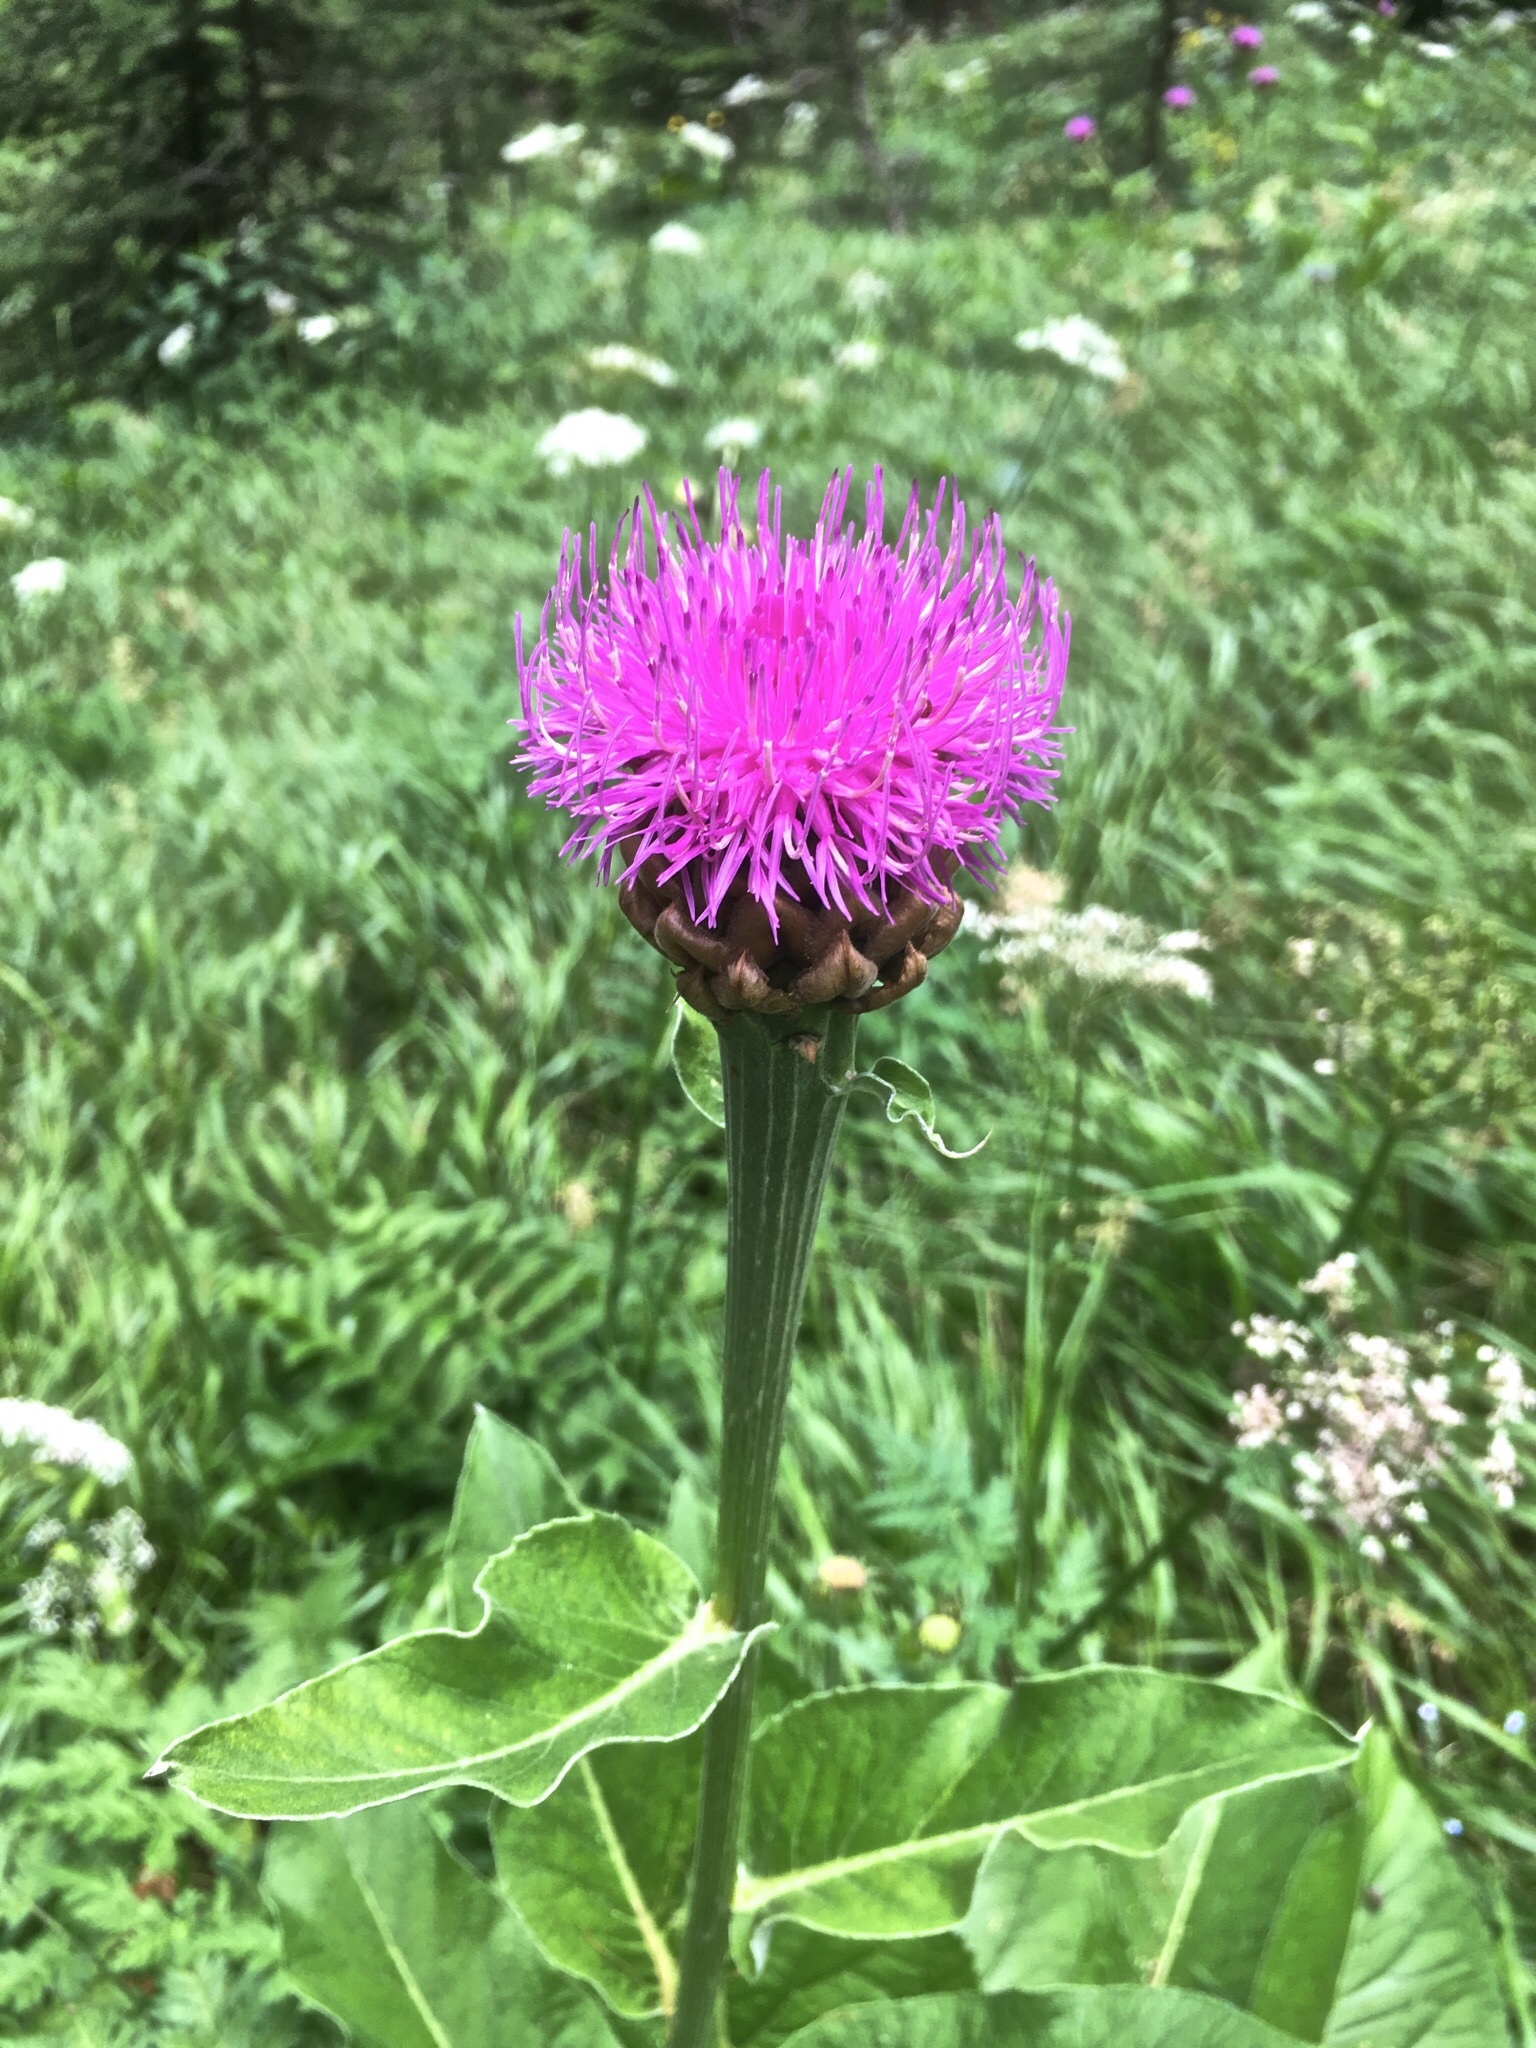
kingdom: Plantae
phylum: Tracheophyta
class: Magnoliopsida
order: Asterales
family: Asteraceae
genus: Leuzea
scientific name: Leuzea rhapontica
